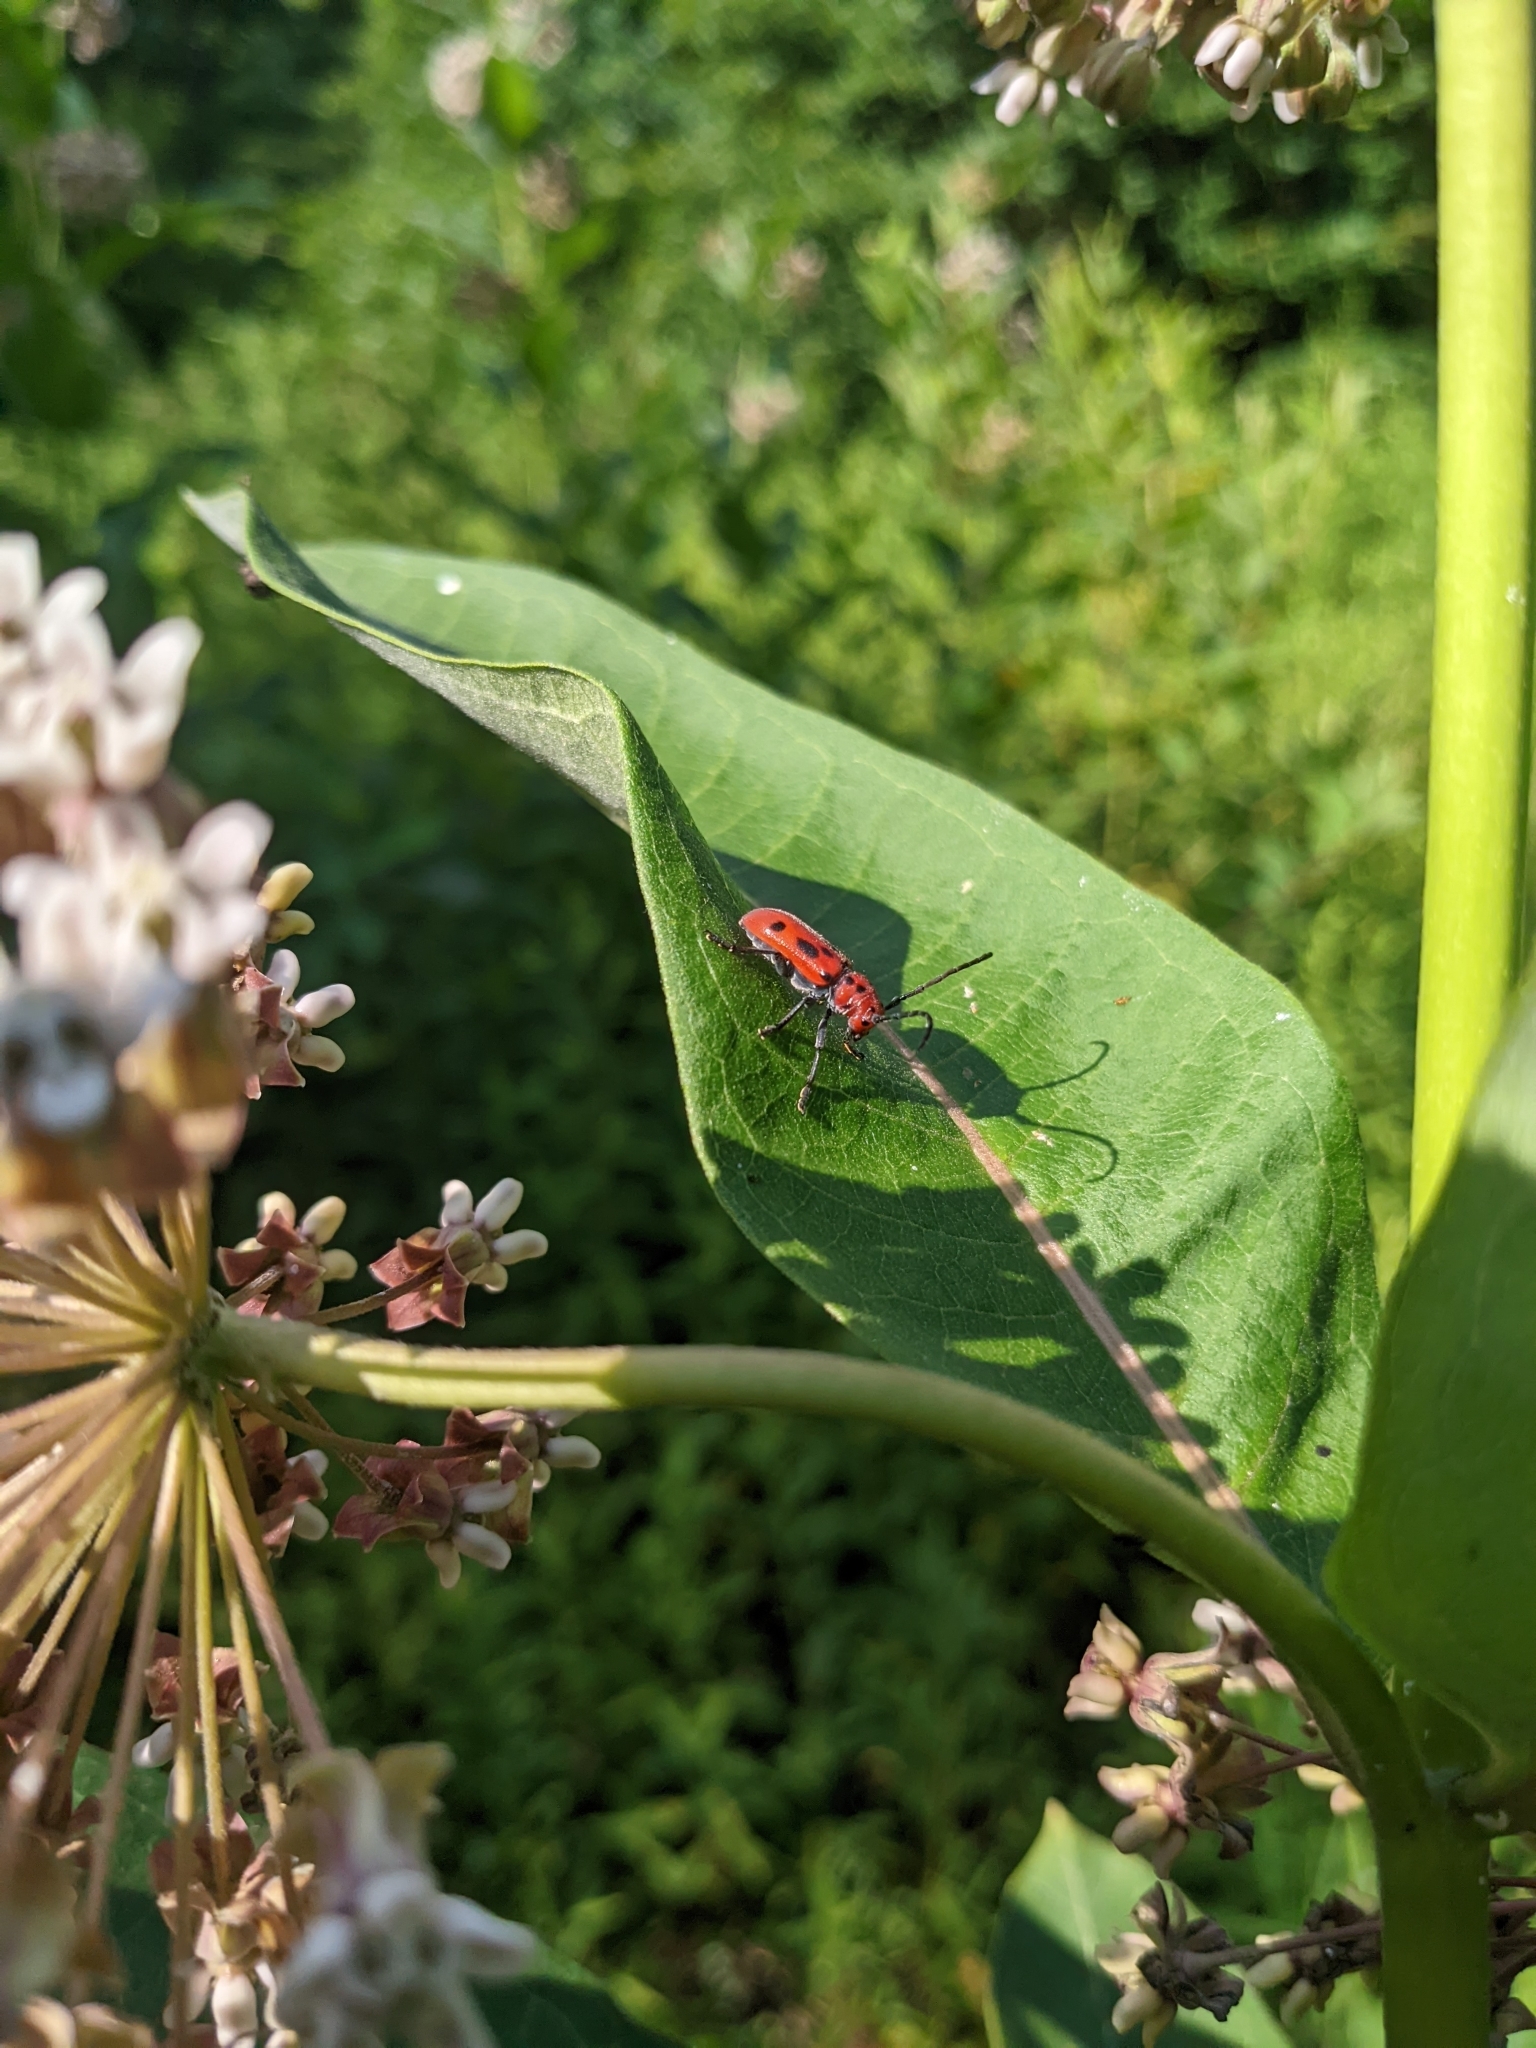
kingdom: Animalia
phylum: Arthropoda
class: Insecta
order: Coleoptera
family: Cerambycidae
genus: Tetraopes
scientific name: Tetraopes tetrophthalmus
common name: Red milkweed beetle
